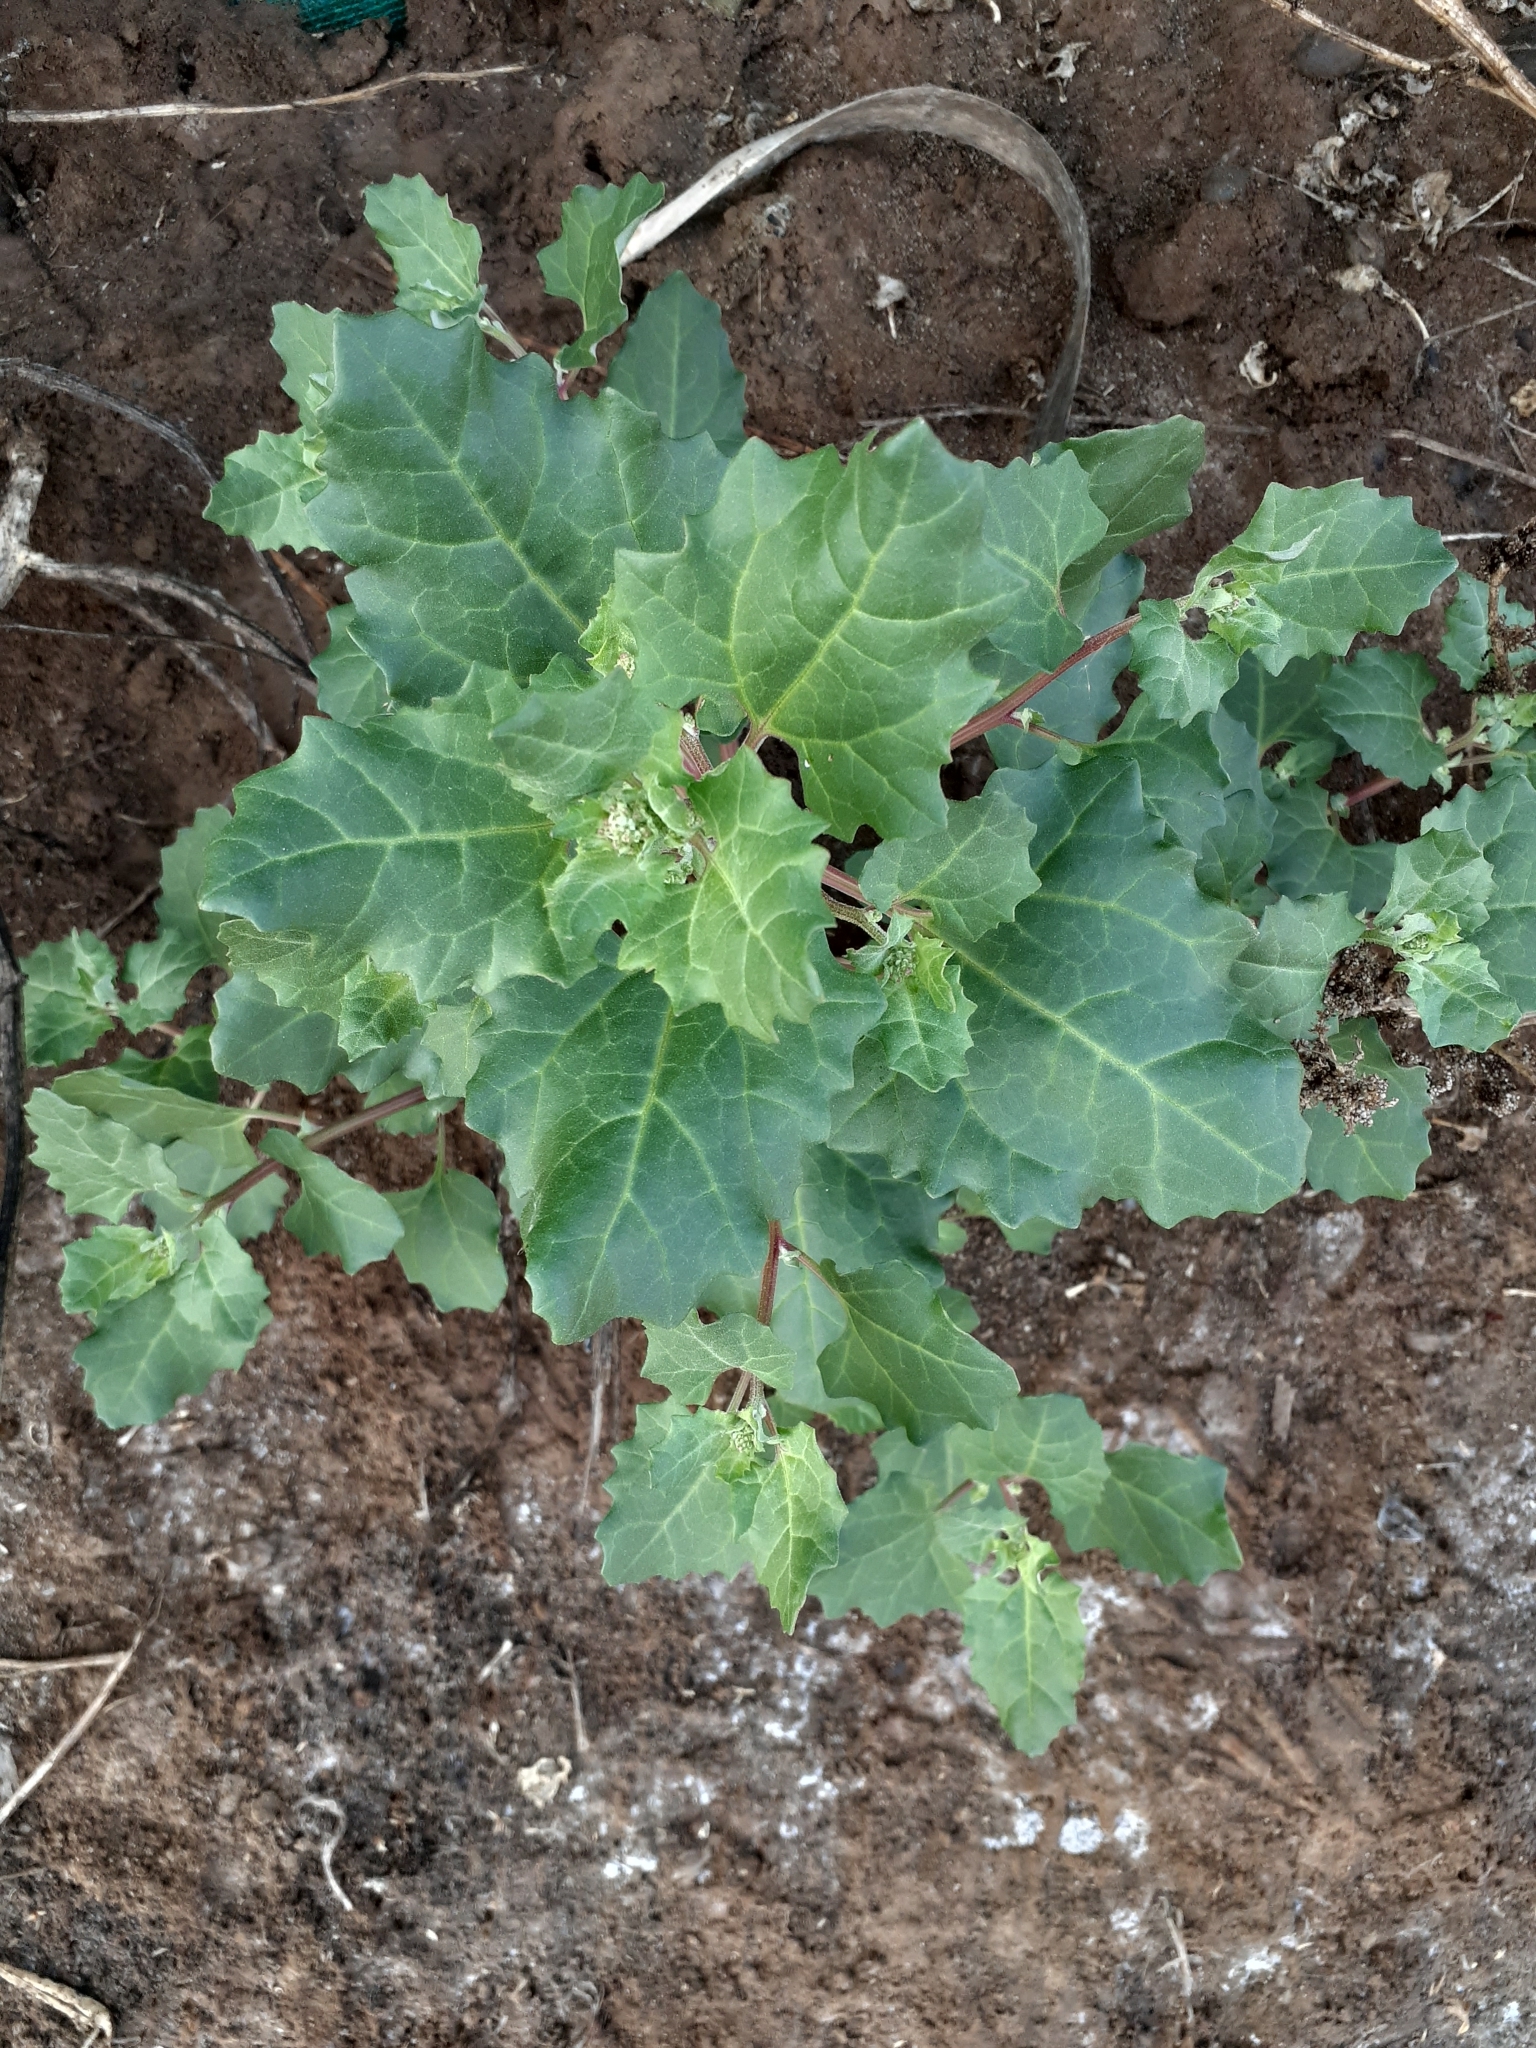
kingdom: Plantae
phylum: Tracheophyta
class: Magnoliopsida
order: Caryophyllales
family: Amaranthaceae
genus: Oxybasis
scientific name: Oxybasis
